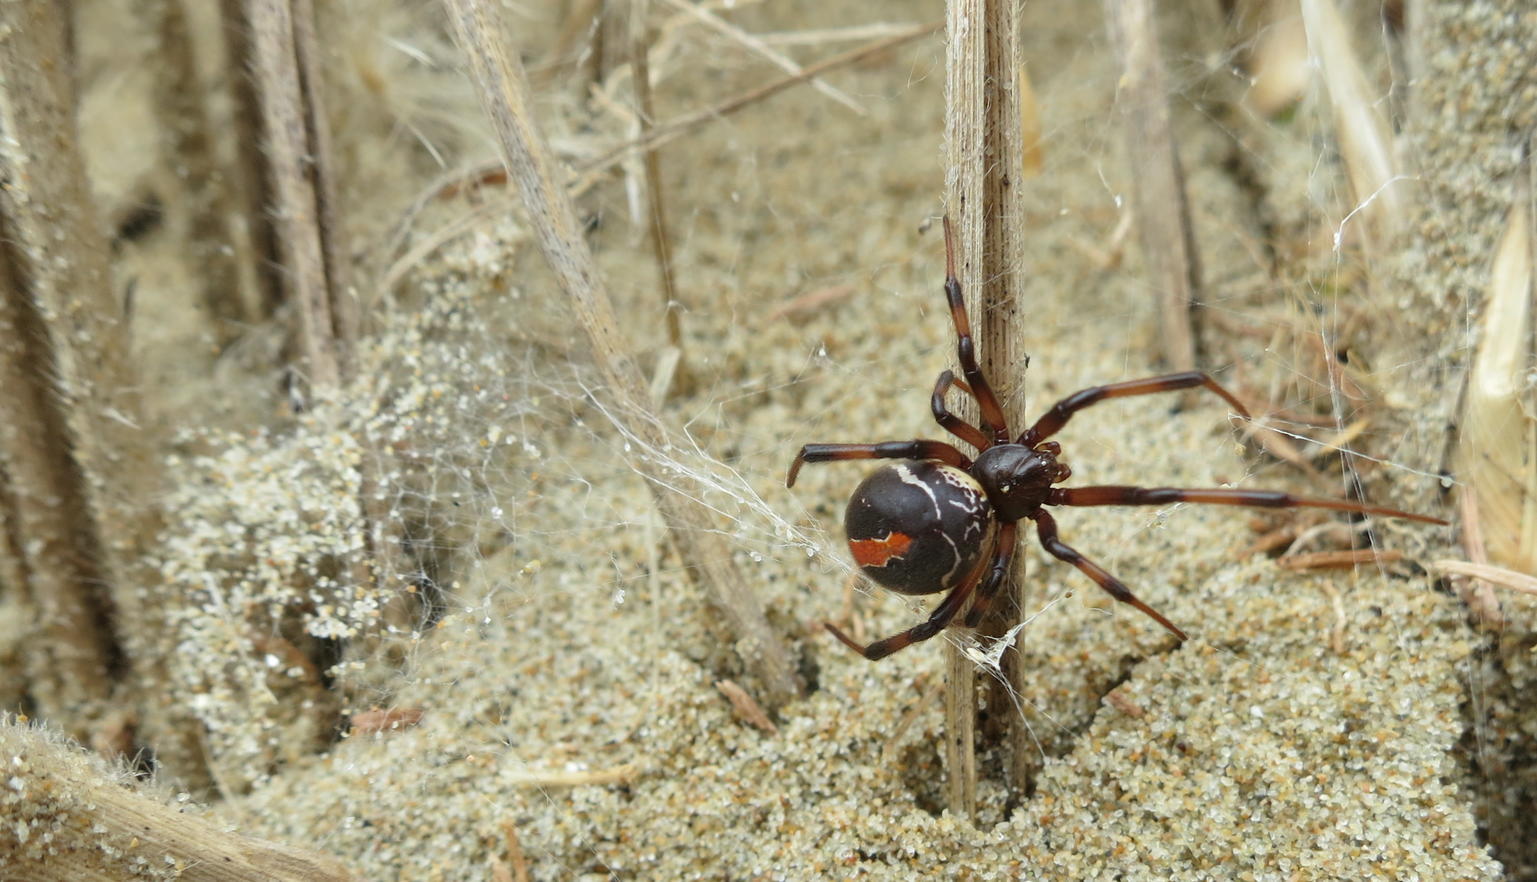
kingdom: Animalia
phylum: Arthropoda
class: Arachnida
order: Araneae
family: Theridiidae
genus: Latrodectus
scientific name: Latrodectus katipo
